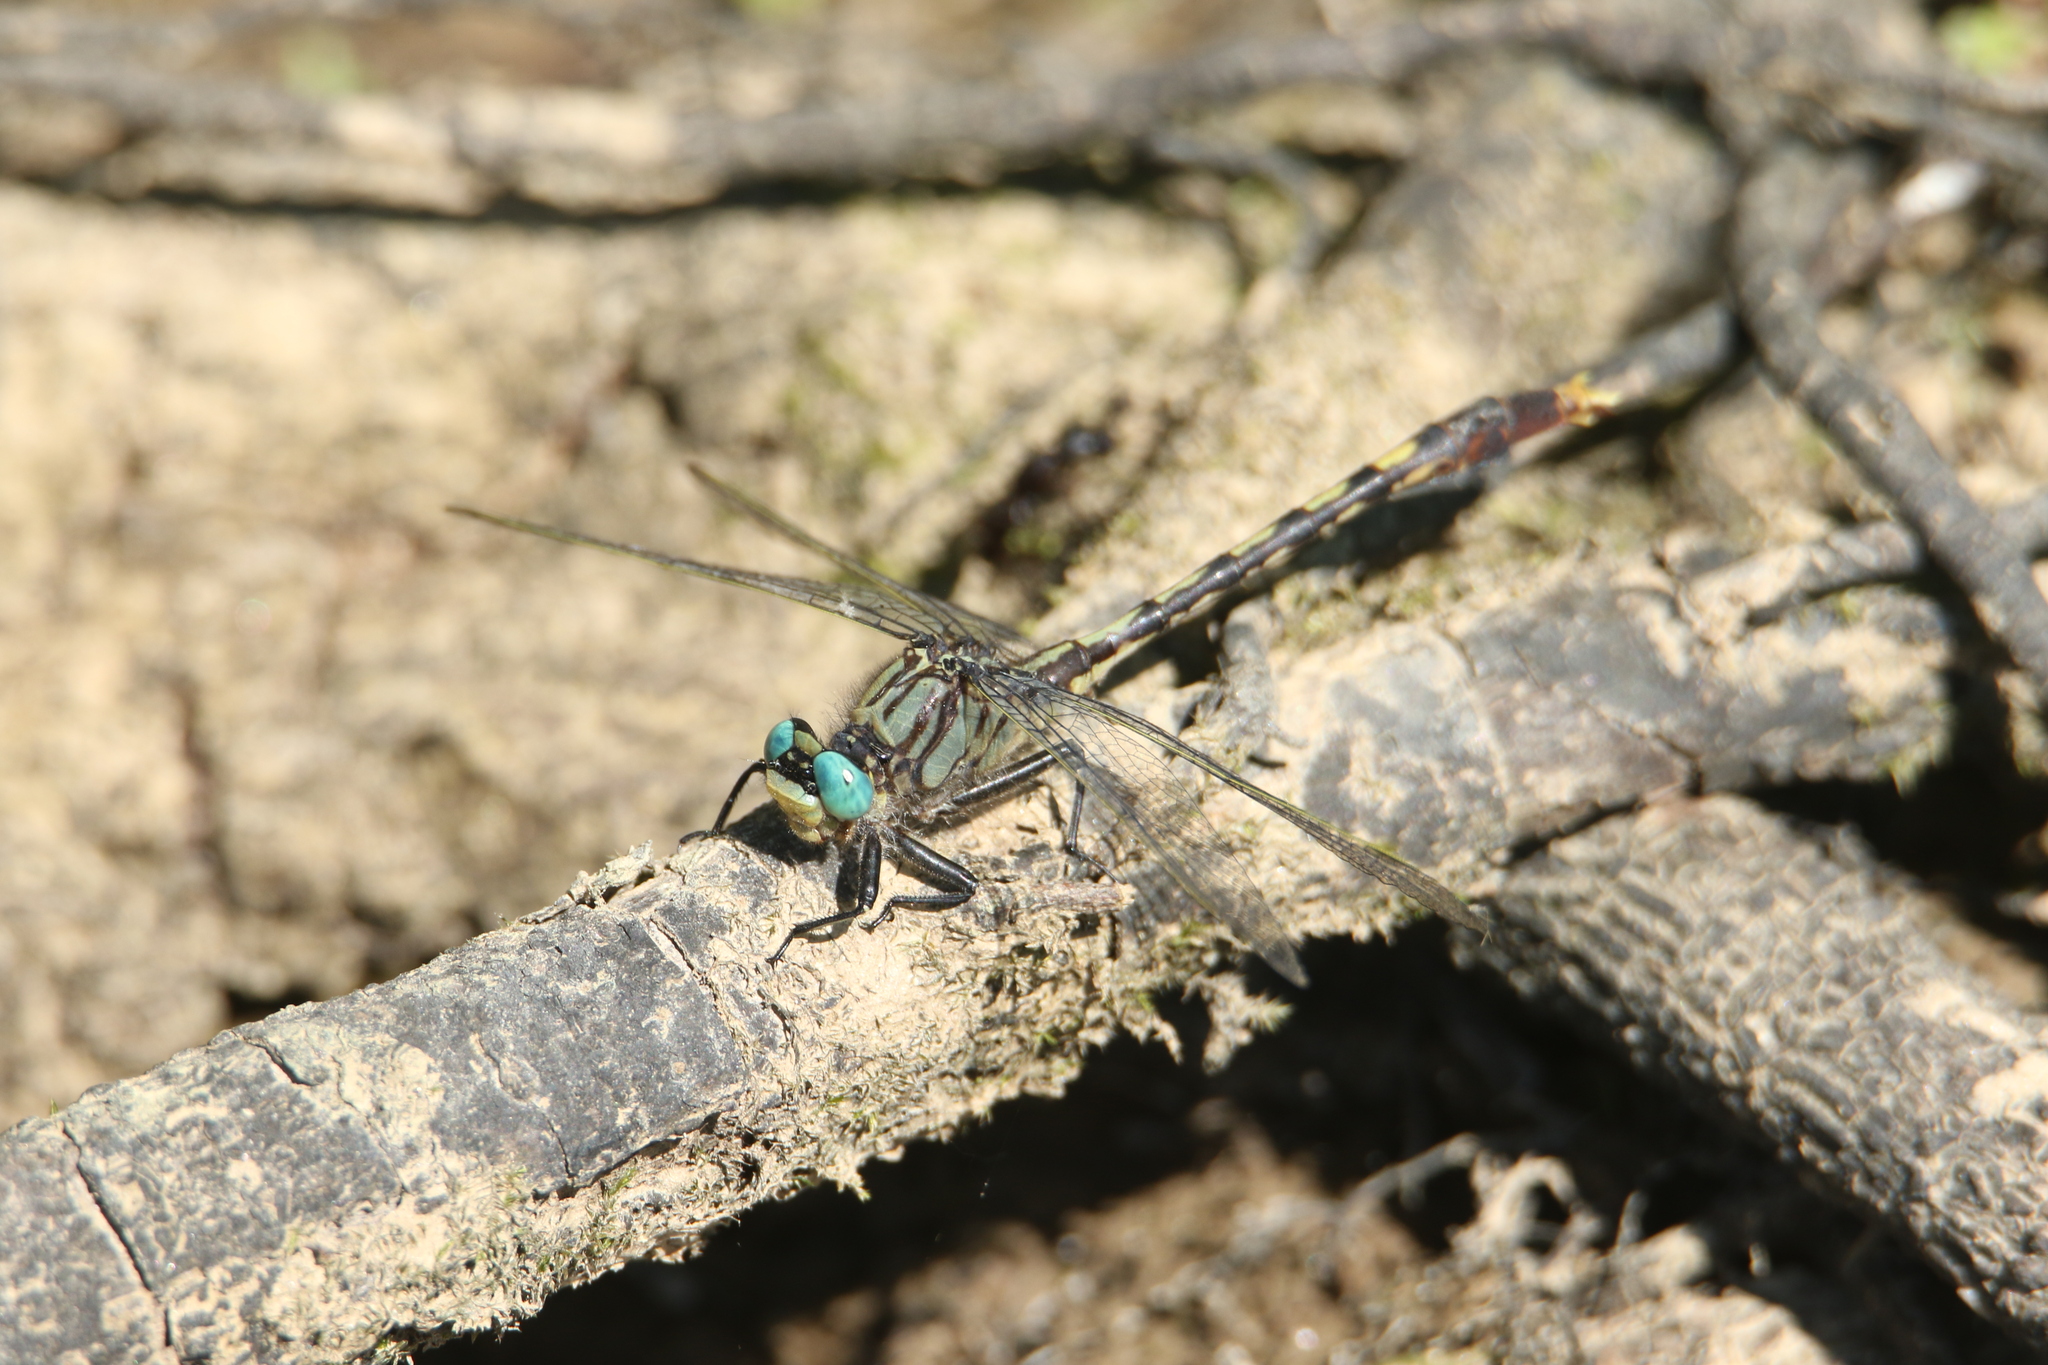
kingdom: Animalia
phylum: Arthropoda
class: Insecta
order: Odonata
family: Gomphidae
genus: Arigomphus
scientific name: Arigomphus villosipes
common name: Unicorn clubtail
